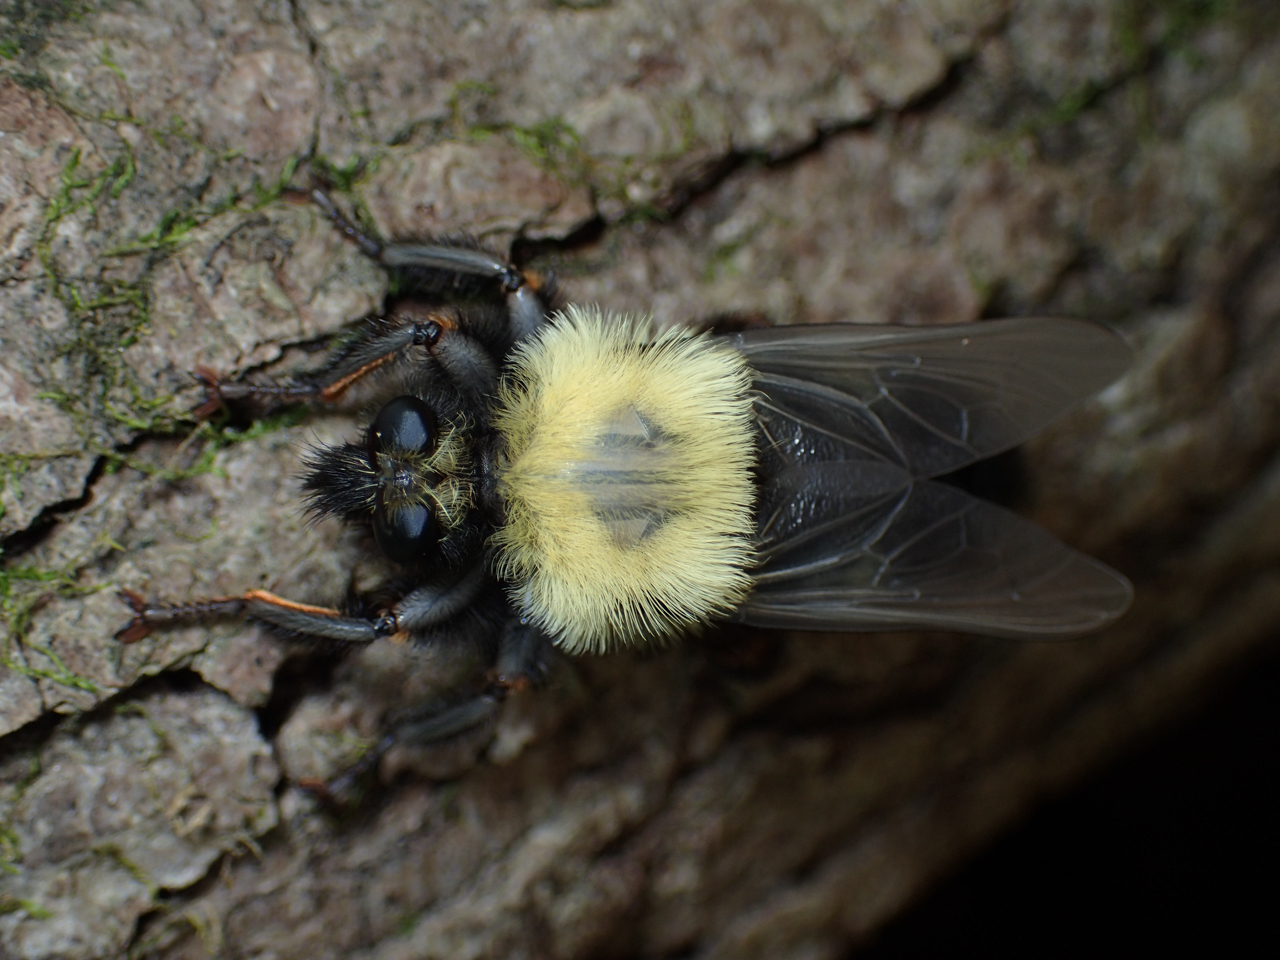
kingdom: Animalia
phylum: Arthropoda
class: Insecta
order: Diptera
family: Asilidae
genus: Laphria
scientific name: Laphria thoracica
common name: Bumble bee mimic robber fly
